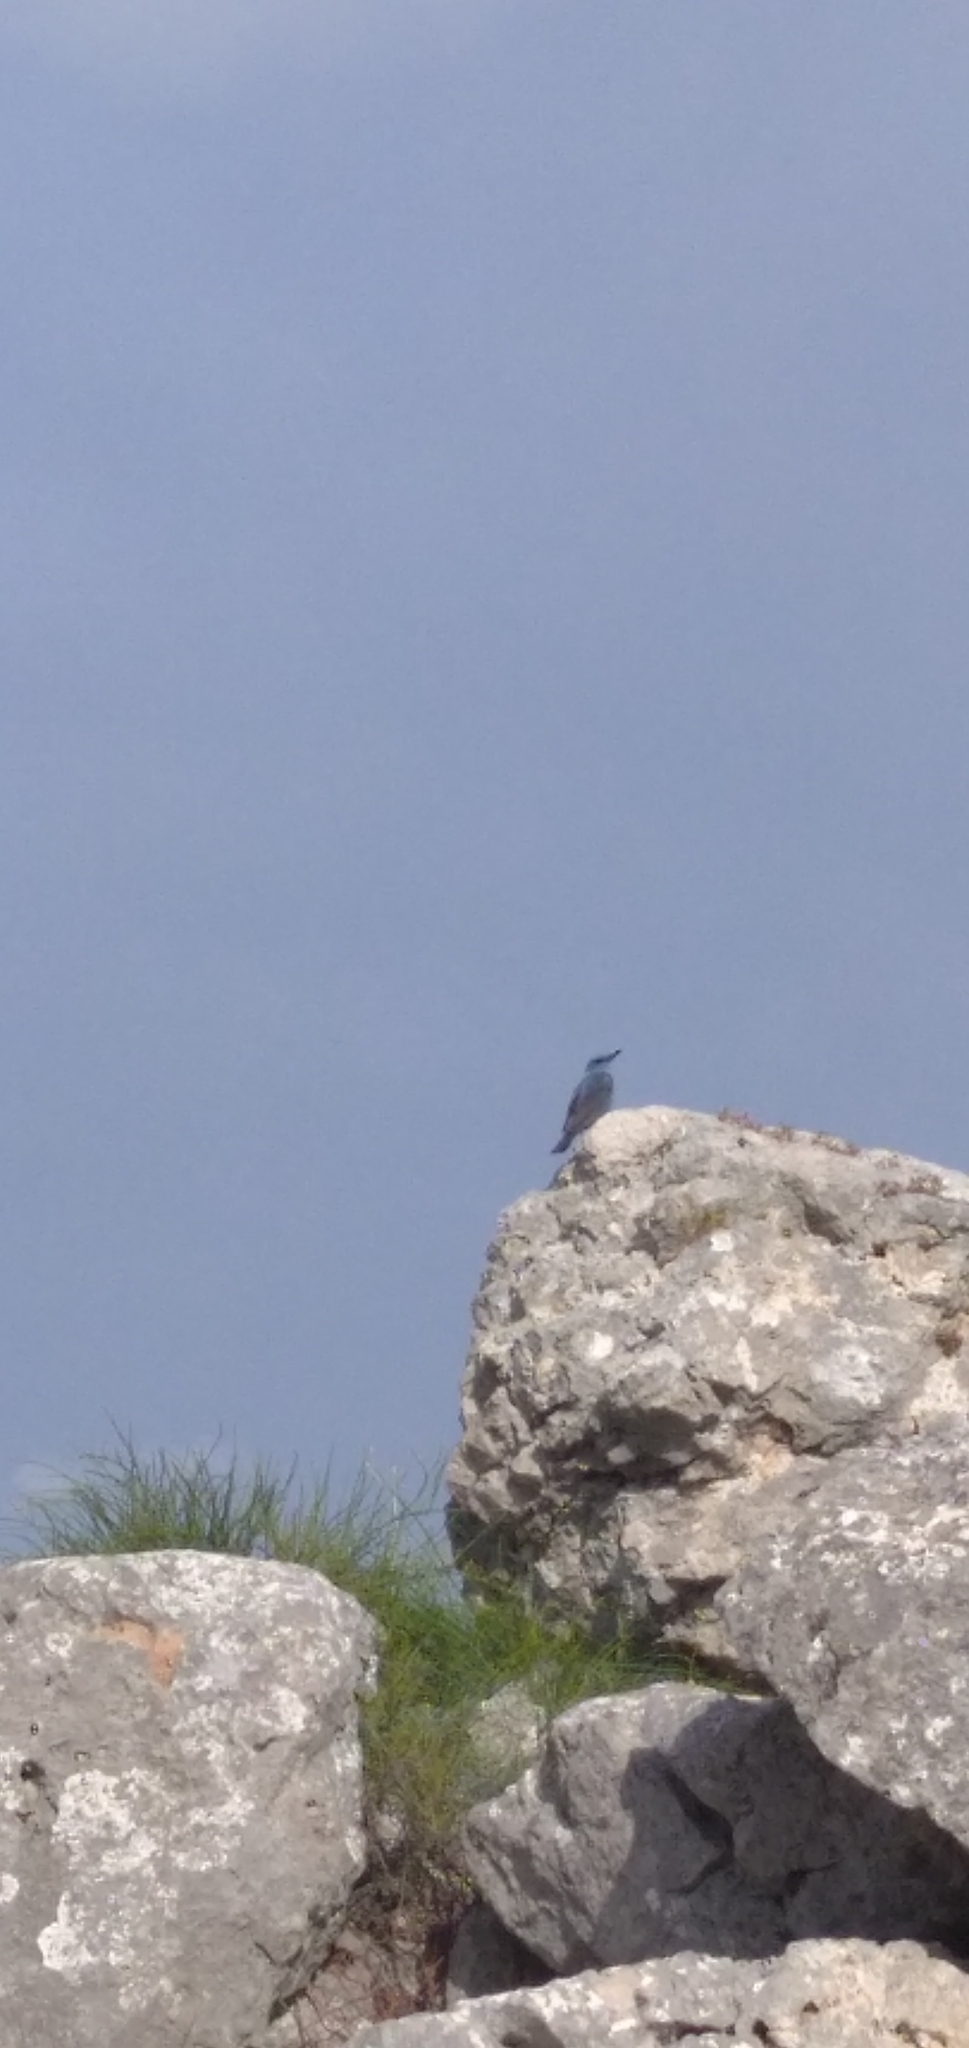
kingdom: Animalia
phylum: Chordata
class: Aves
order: Passeriformes
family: Muscicapidae
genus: Monticola
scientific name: Monticola solitarius
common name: Blue rock thrush
